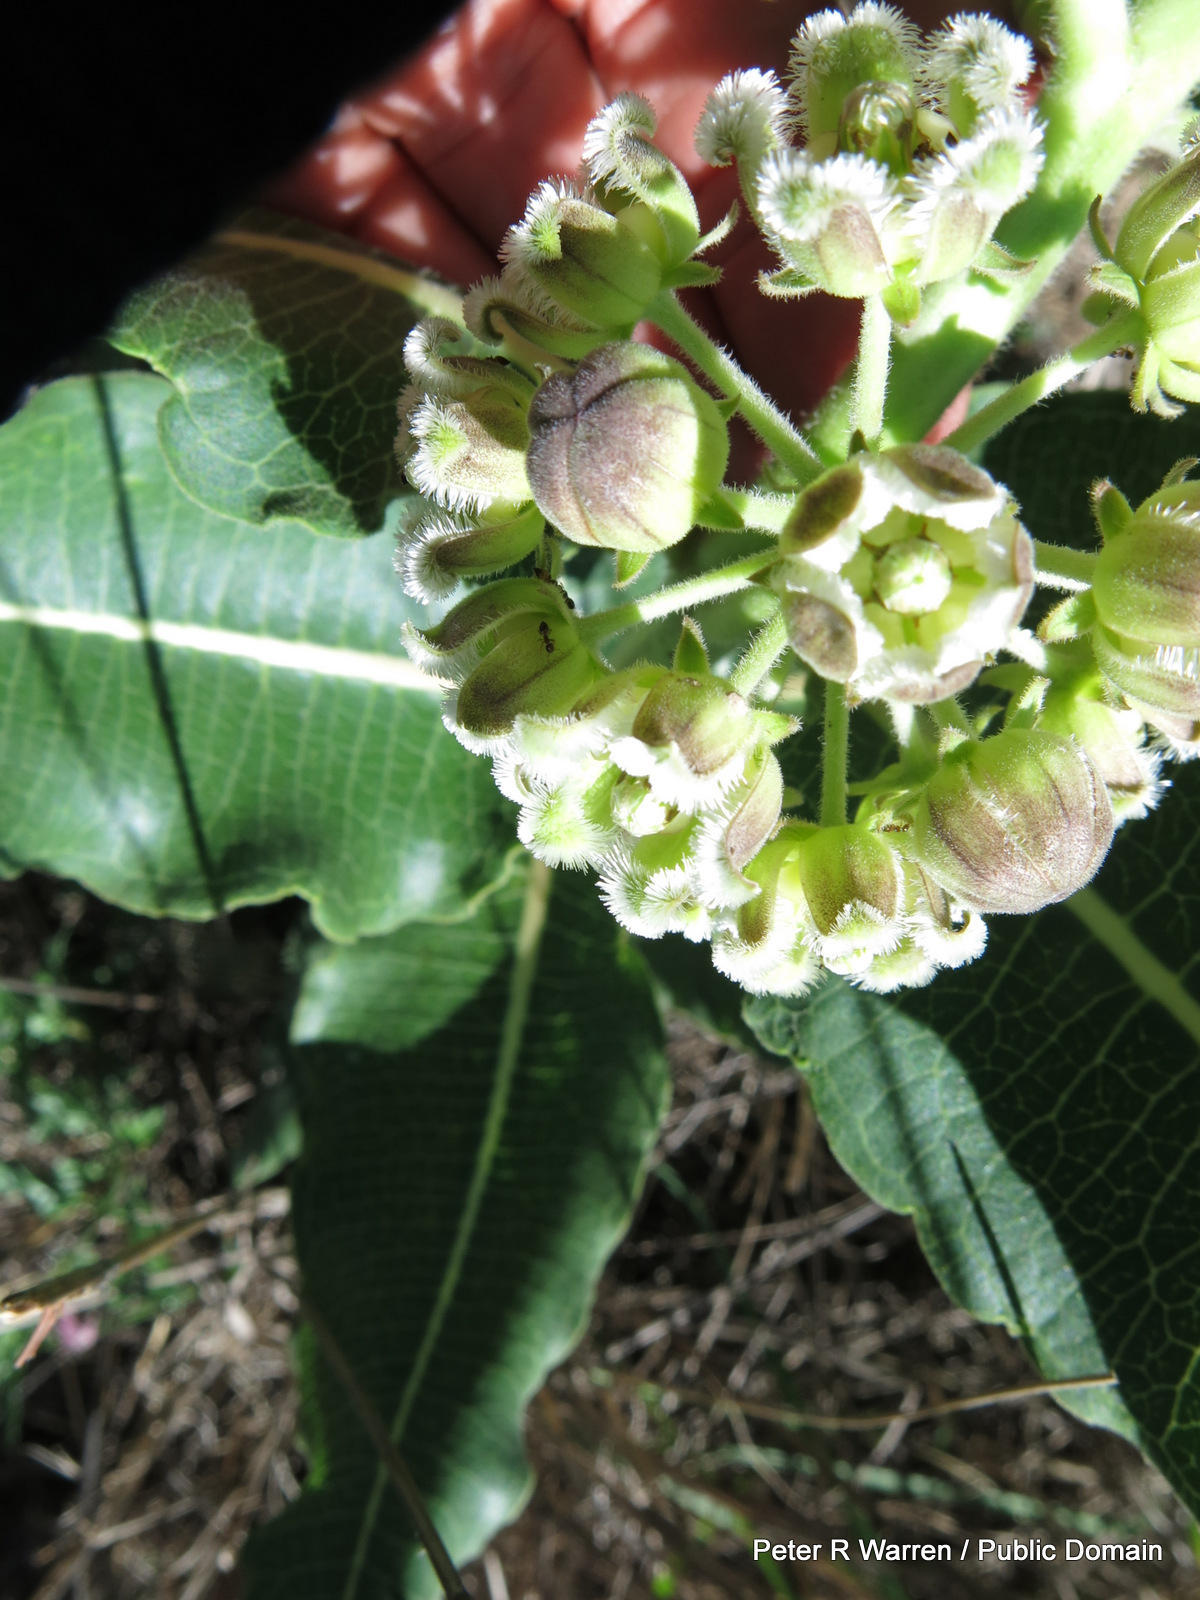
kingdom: Plantae
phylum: Tracheophyta
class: Magnoliopsida
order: Gentianales
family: Apocynaceae
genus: Xysmalobium
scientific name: Xysmalobium undulatum
